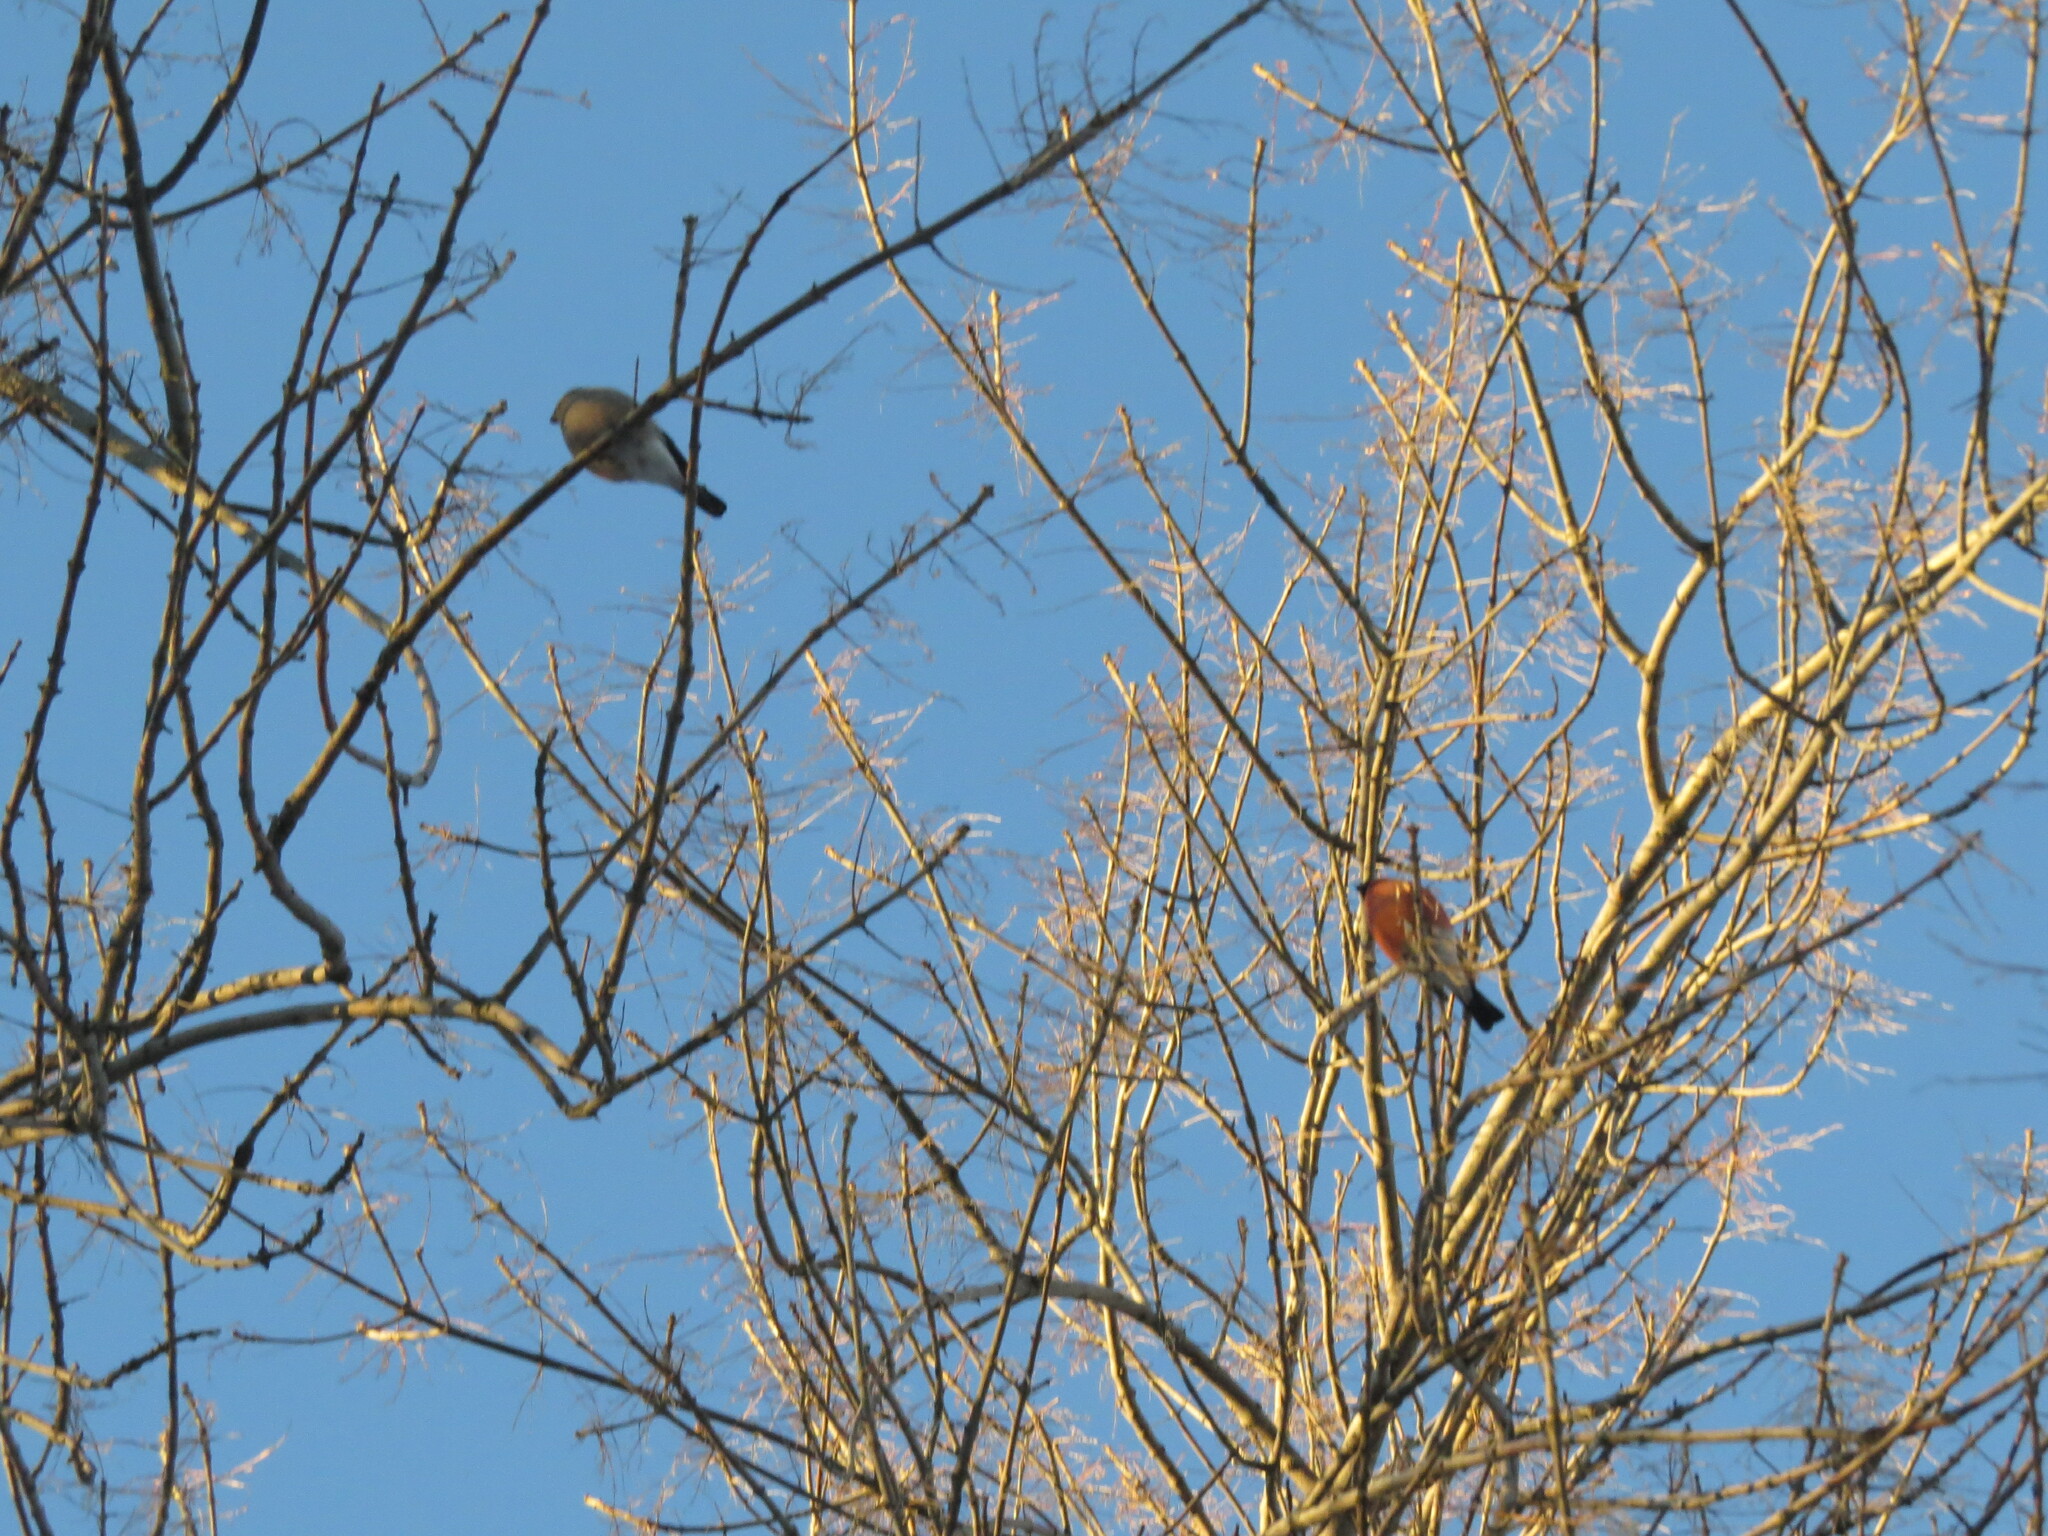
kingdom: Animalia
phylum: Chordata
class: Aves
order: Passeriformes
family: Fringillidae
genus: Pyrrhula
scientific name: Pyrrhula pyrrhula
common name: Eurasian bullfinch
